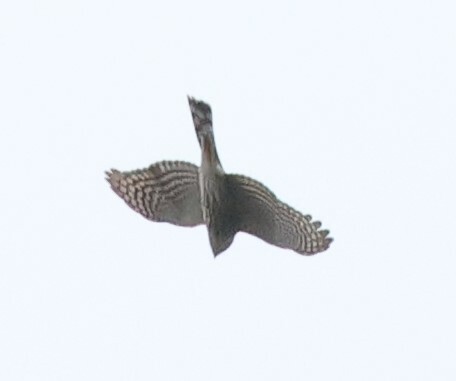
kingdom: Animalia
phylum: Chordata
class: Aves
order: Accipitriformes
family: Accipitridae
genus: Accipiter
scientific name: Accipiter striatus
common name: Sharp-shinned hawk
